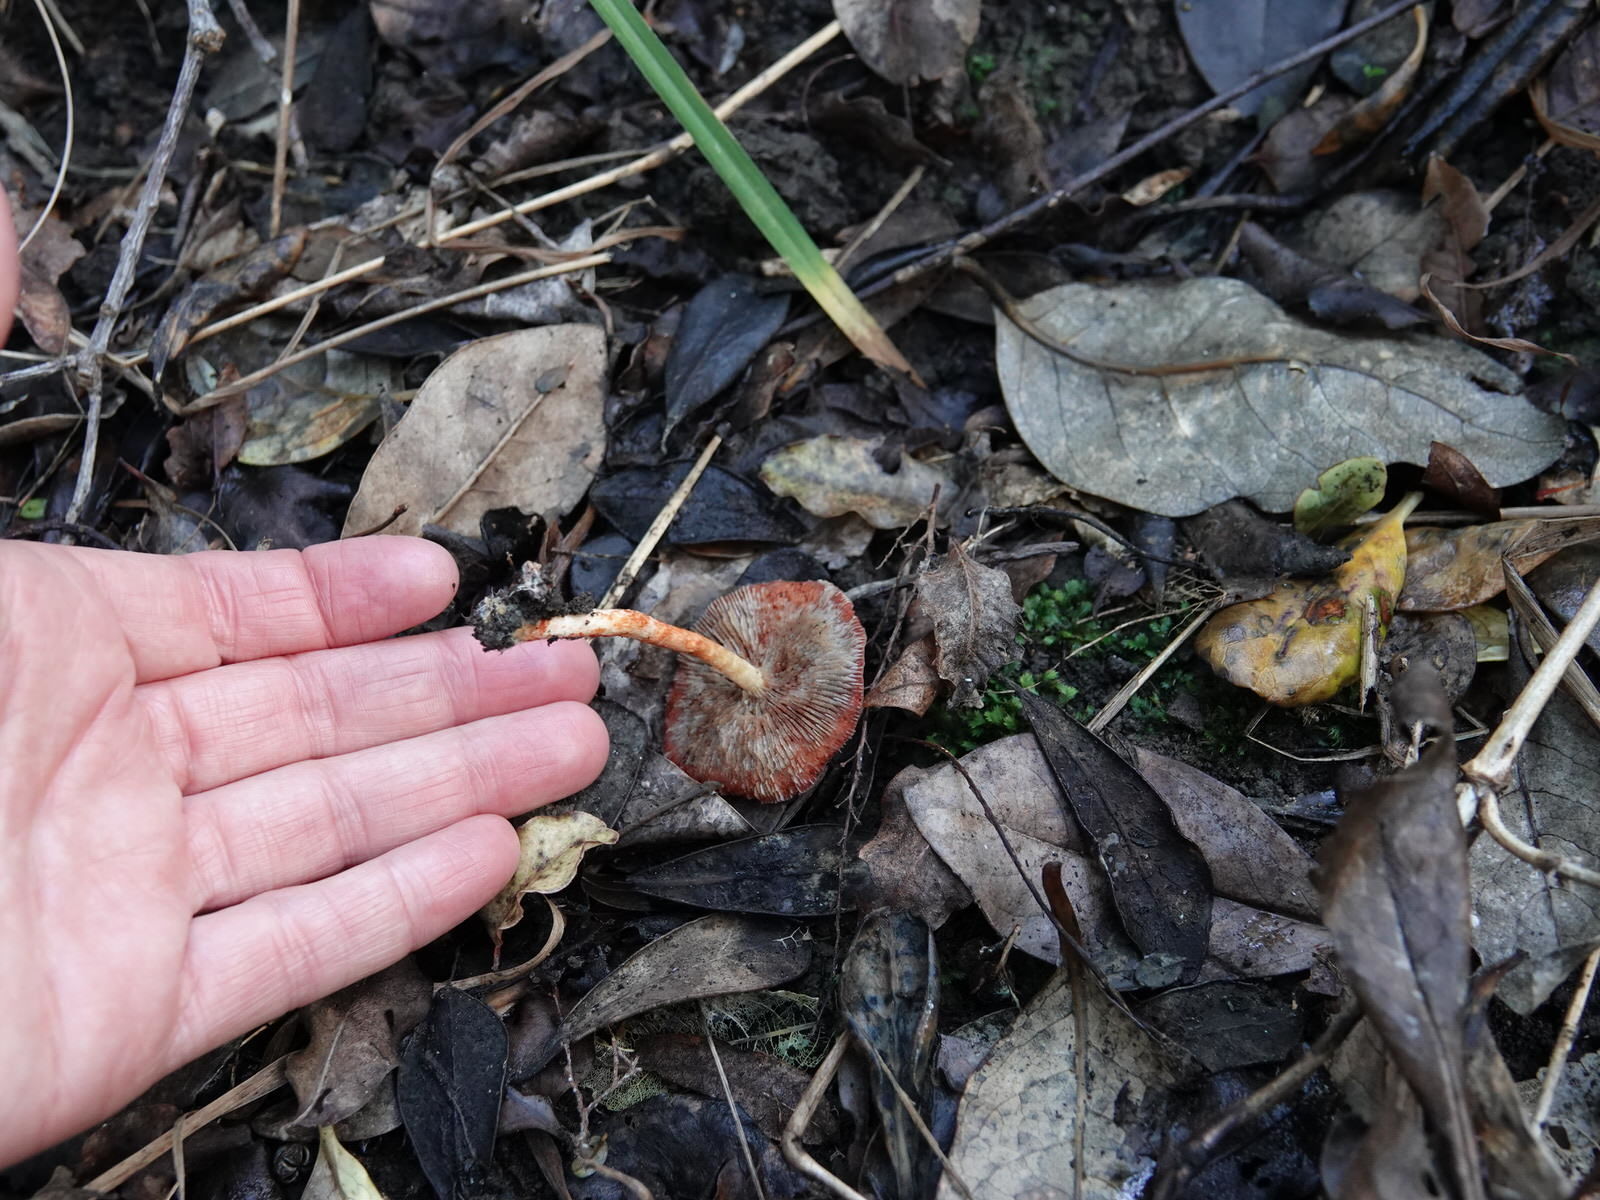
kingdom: Fungi
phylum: Basidiomycota
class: Agaricomycetes
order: Agaricales
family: Strophariaceae
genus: Leratiomyces
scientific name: Leratiomyces ceres
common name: Redlead roundhead
